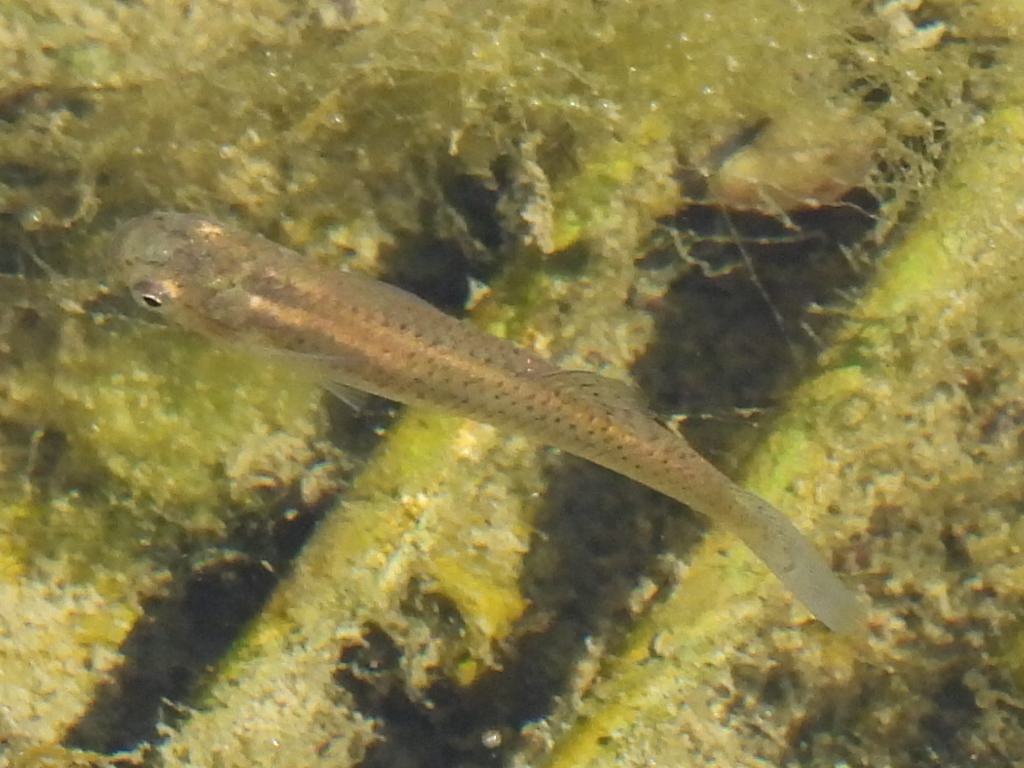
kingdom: Animalia
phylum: Chordata
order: Cyprinodontiformes
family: Poeciliidae
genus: Gambusia
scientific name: Gambusia affinis
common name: Mosquitofish
